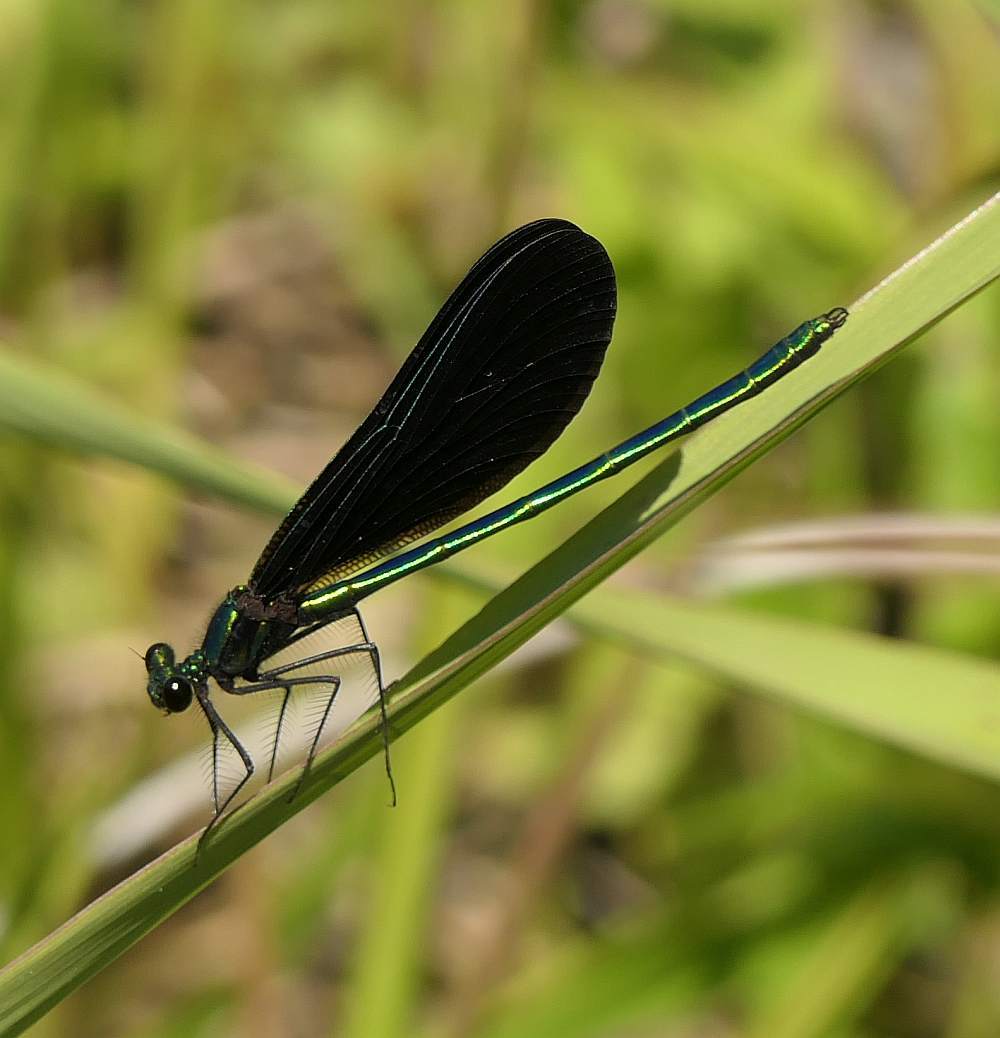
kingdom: Animalia
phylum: Arthropoda
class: Insecta
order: Odonata
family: Calopterygidae
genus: Calopteryx
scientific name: Calopteryx maculata
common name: Ebony jewelwing
